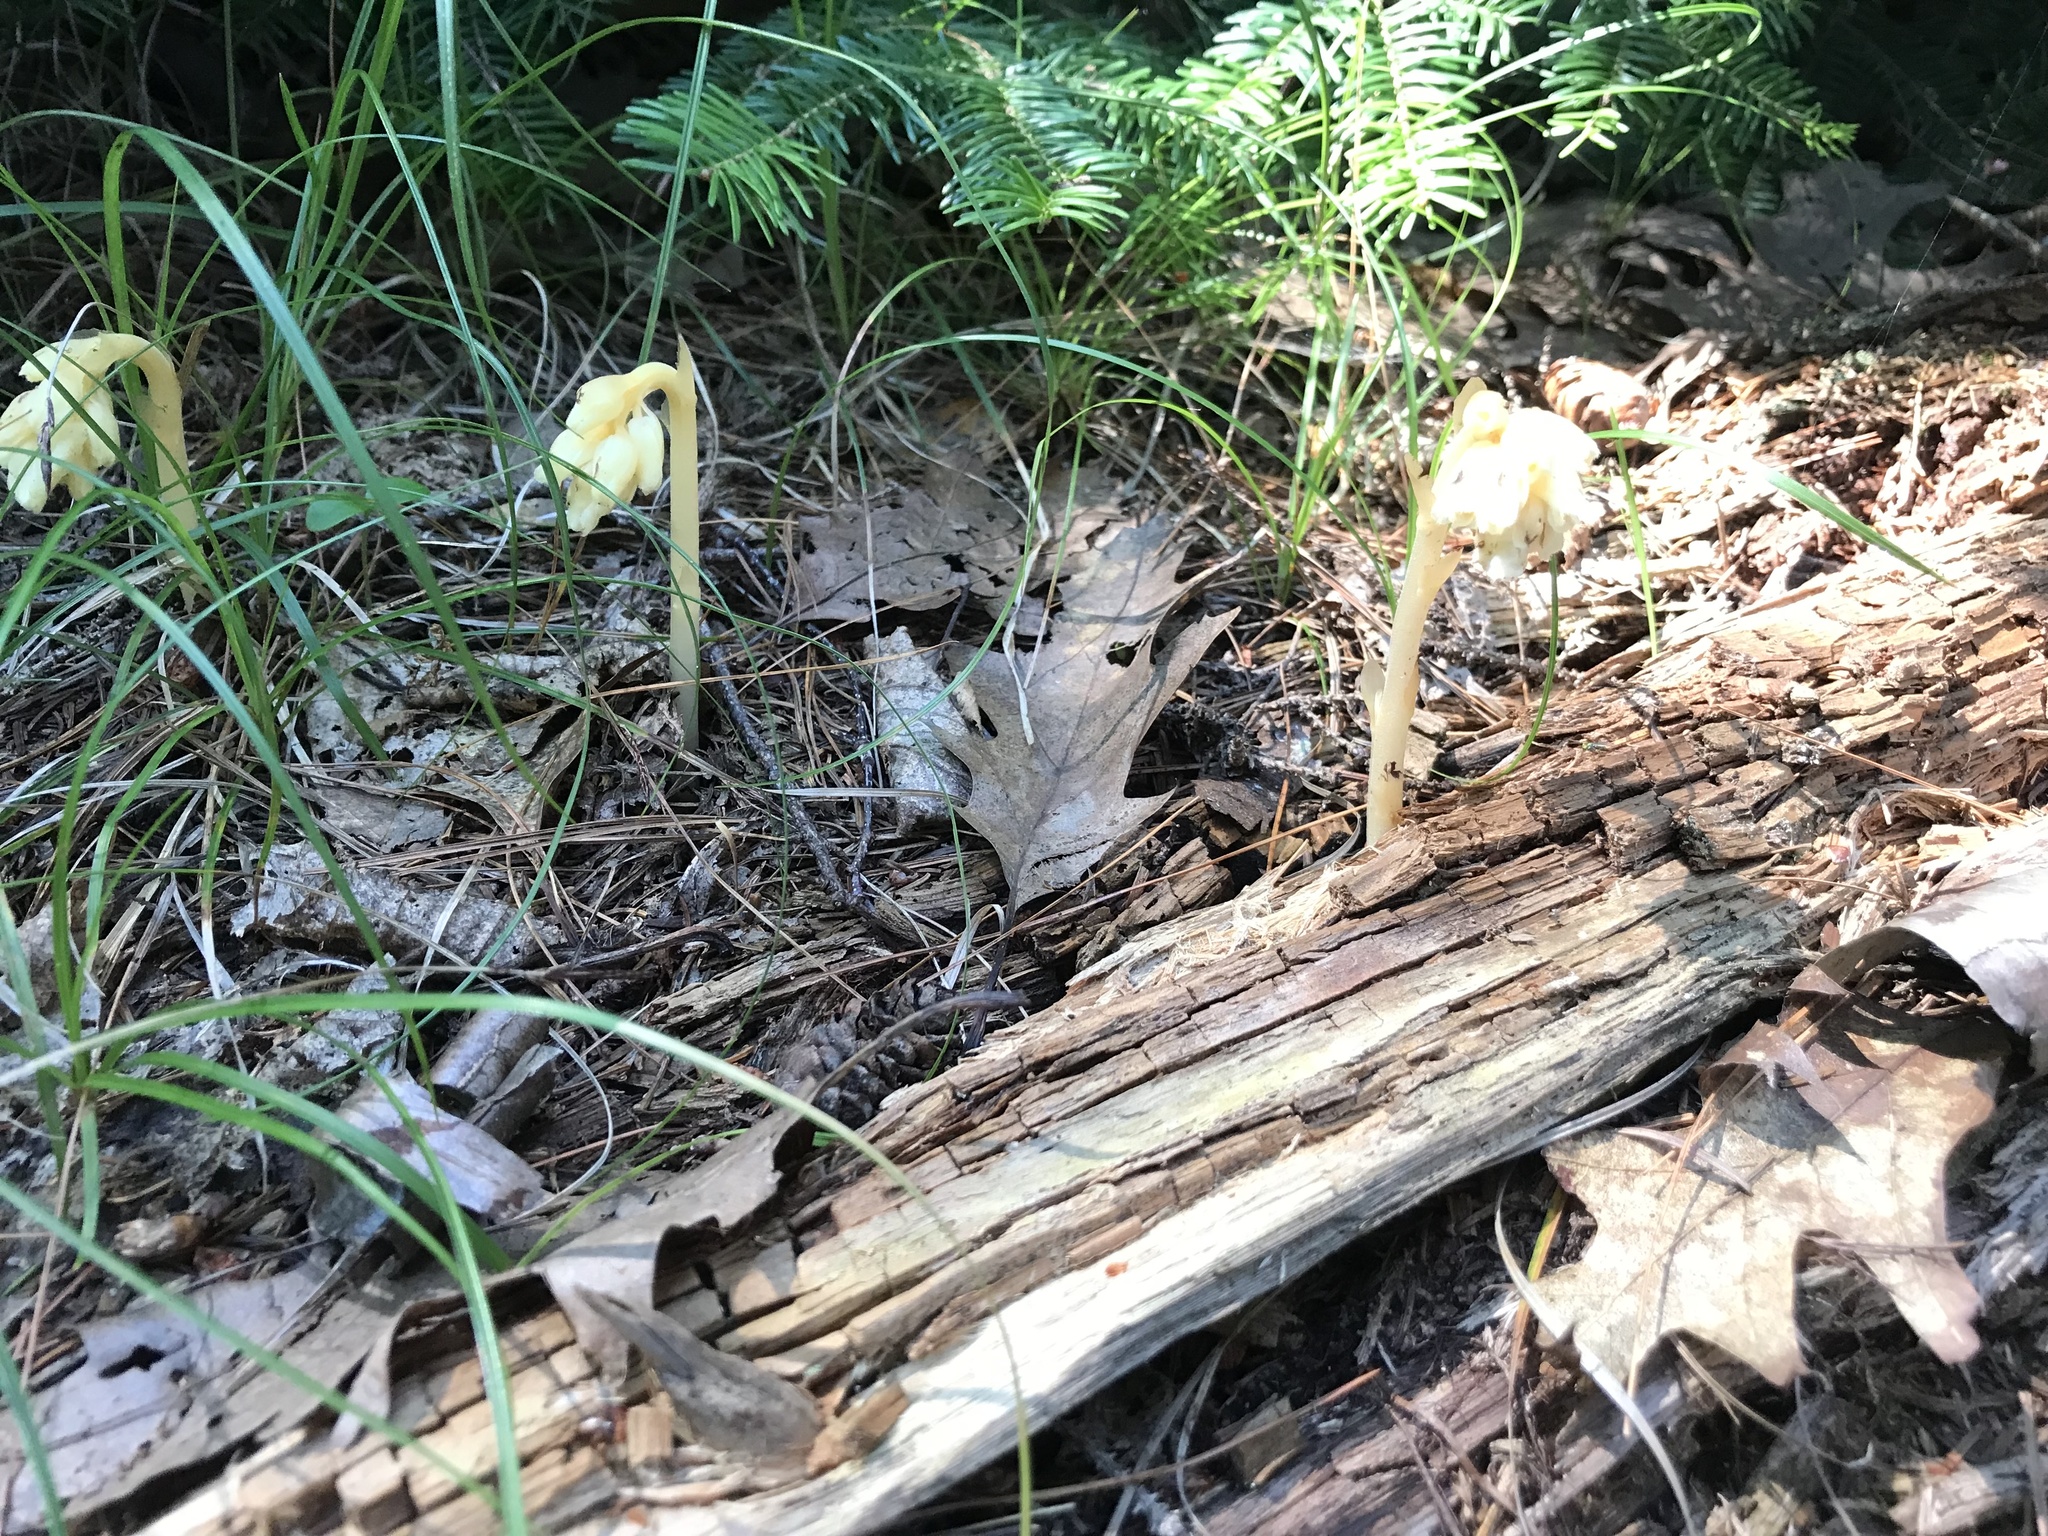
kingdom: Plantae
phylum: Tracheophyta
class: Magnoliopsida
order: Ericales
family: Ericaceae
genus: Hypopitys
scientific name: Hypopitys monotropa
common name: Yellow bird's-nest
